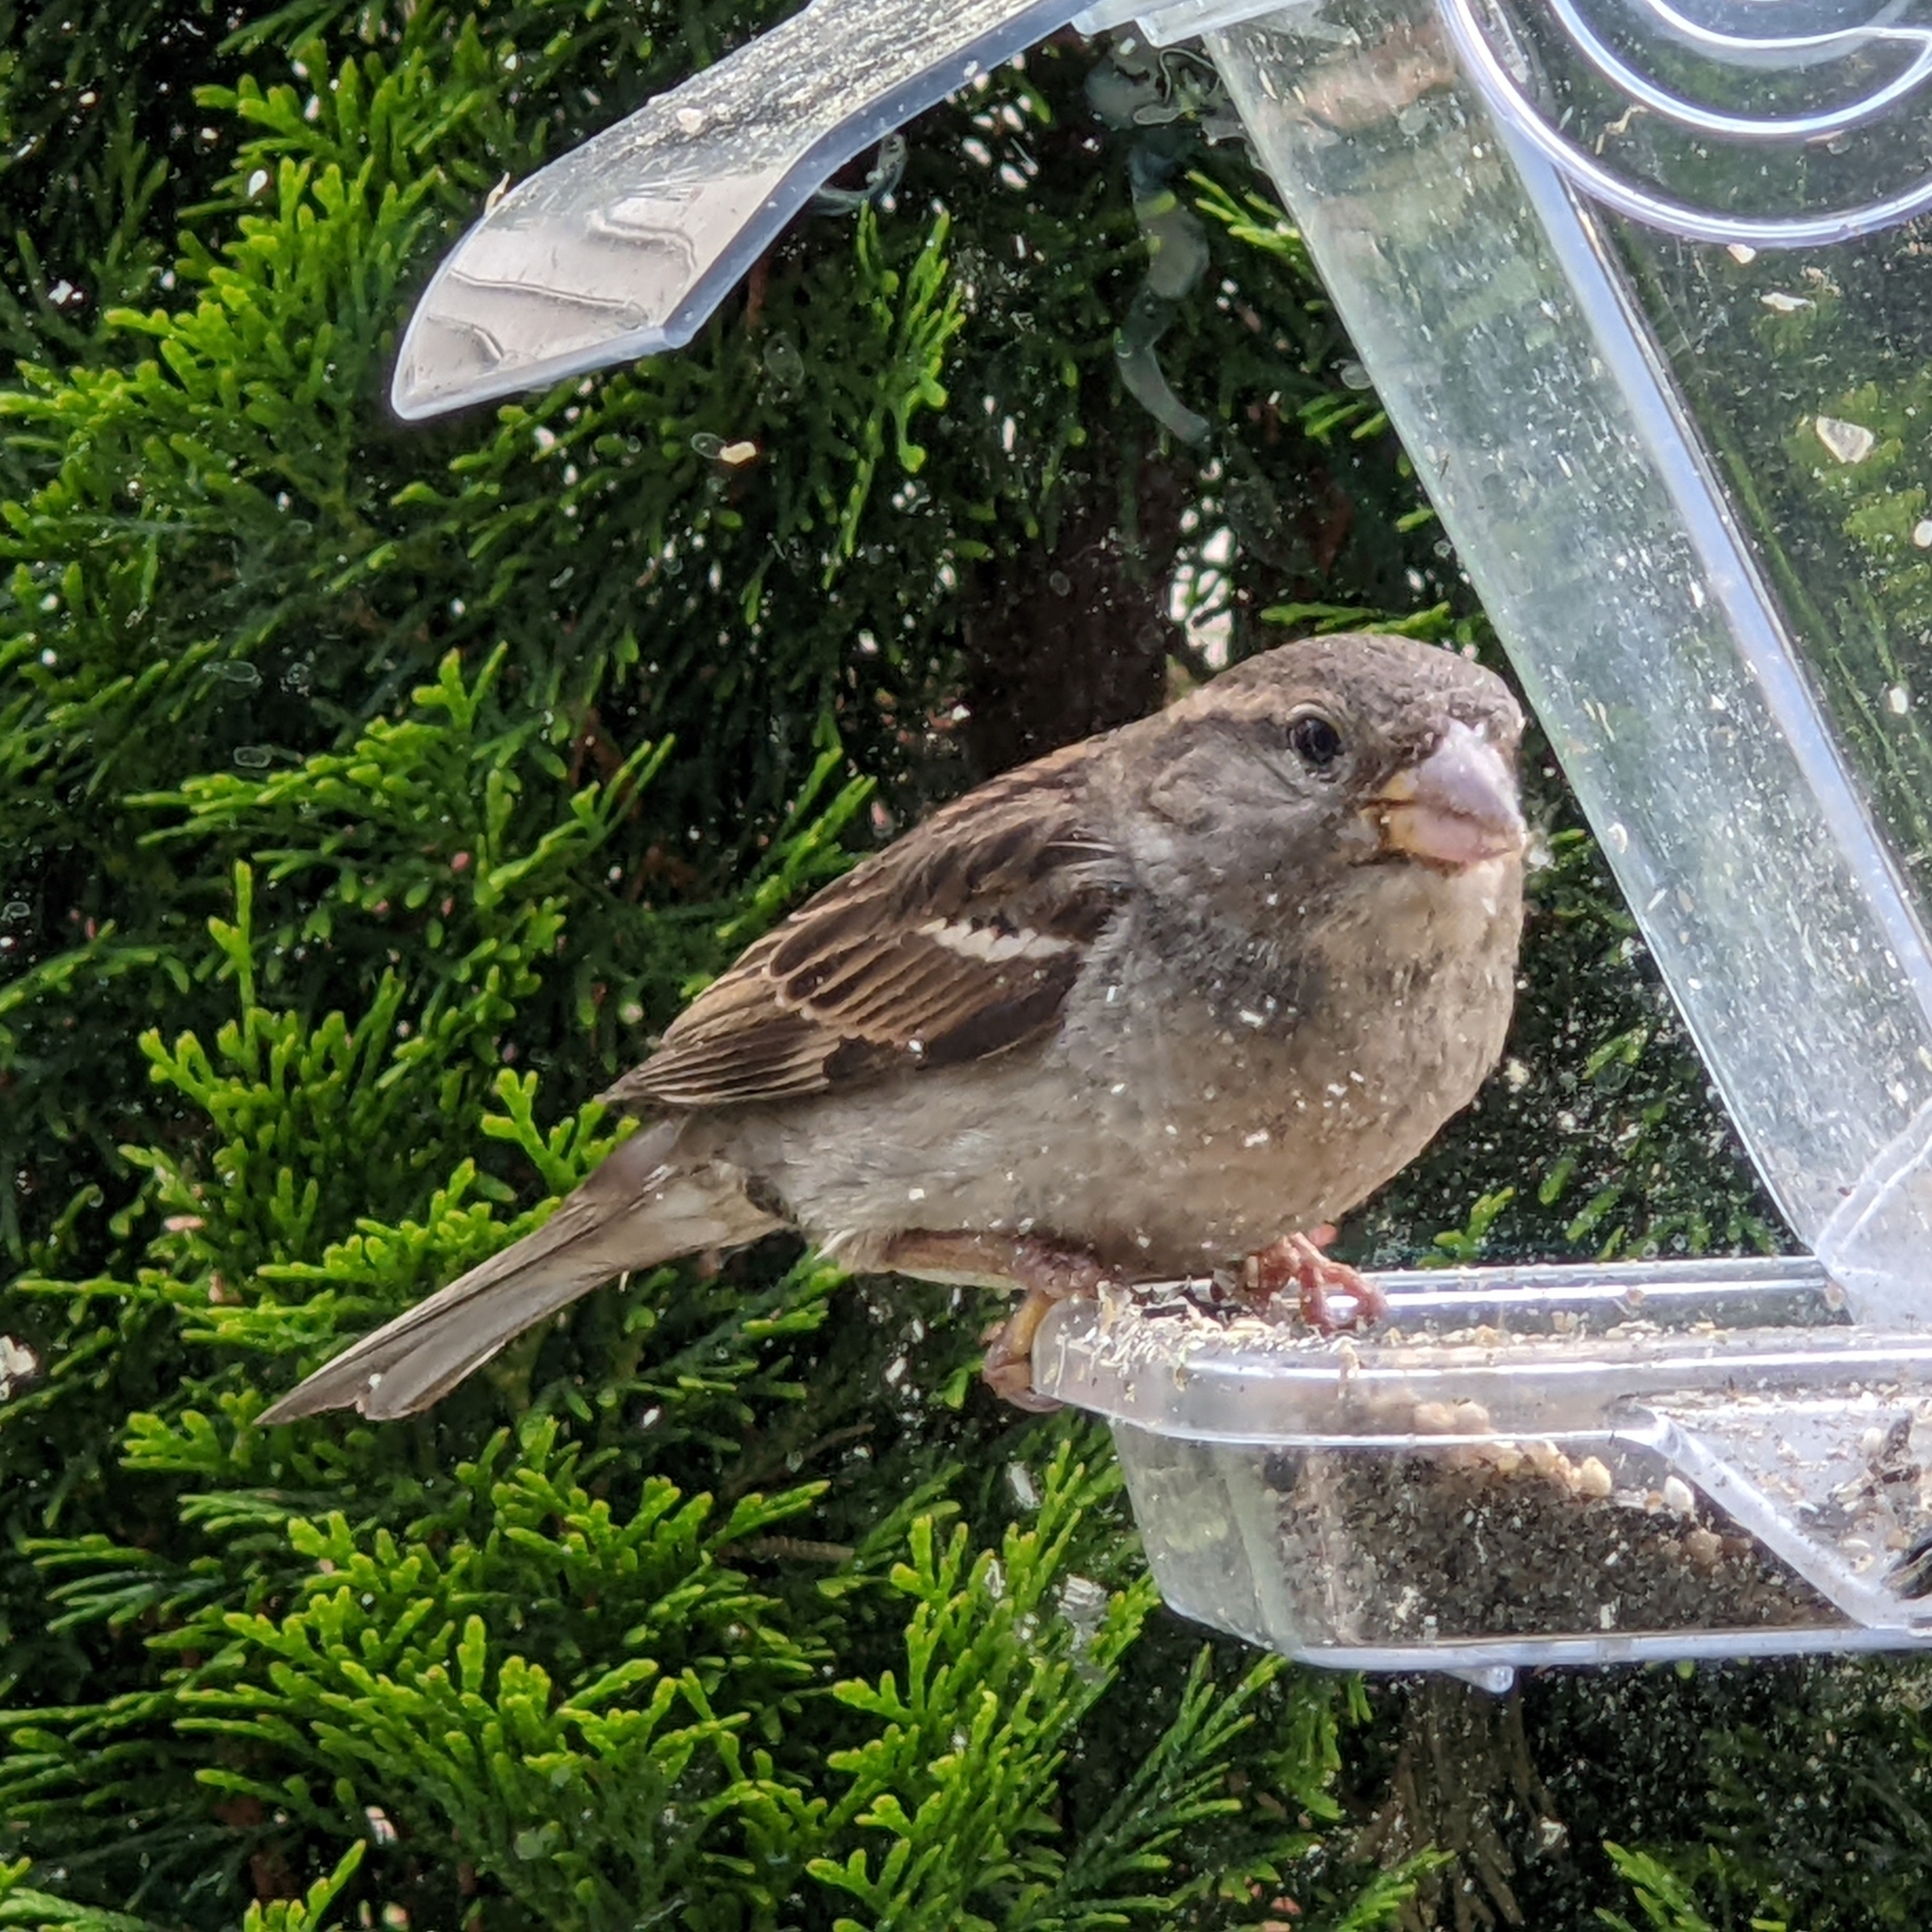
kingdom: Animalia
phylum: Chordata
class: Aves
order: Passeriformes
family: Passeridae
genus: Passer
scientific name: Passer domesticus
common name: House sparrow
